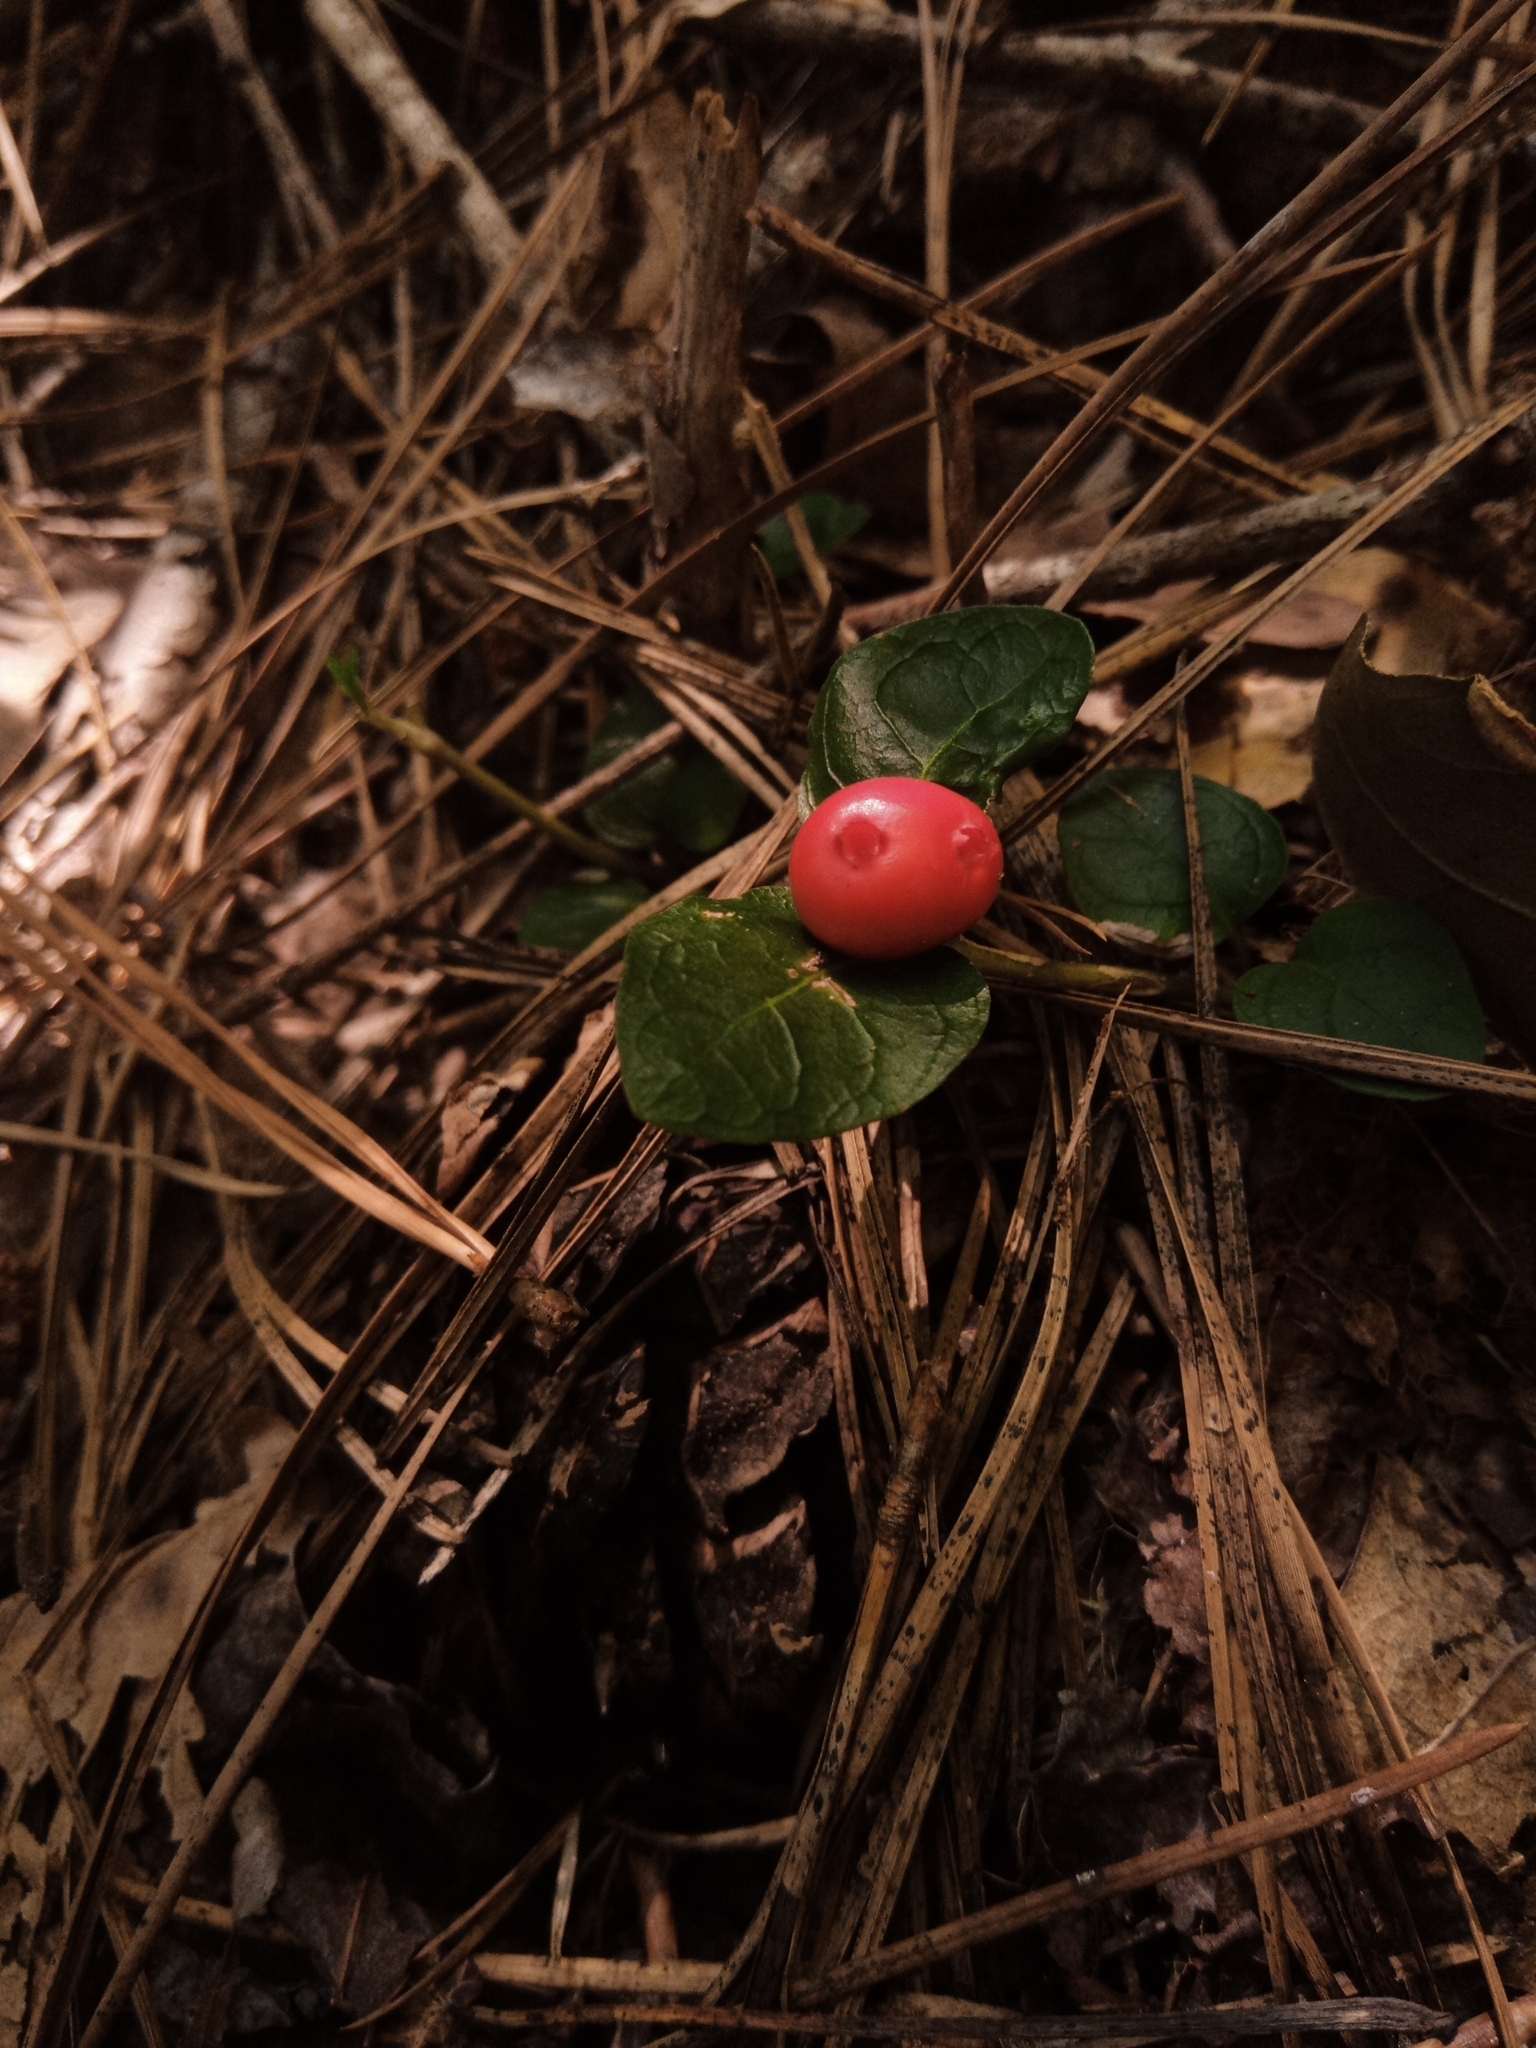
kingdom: Plantae
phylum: Tracheophyta
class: Magnoliopsida
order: Gentianales
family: Rubiaceae
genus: Mitchella
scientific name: Mitchella repens
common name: Partridge-berry
